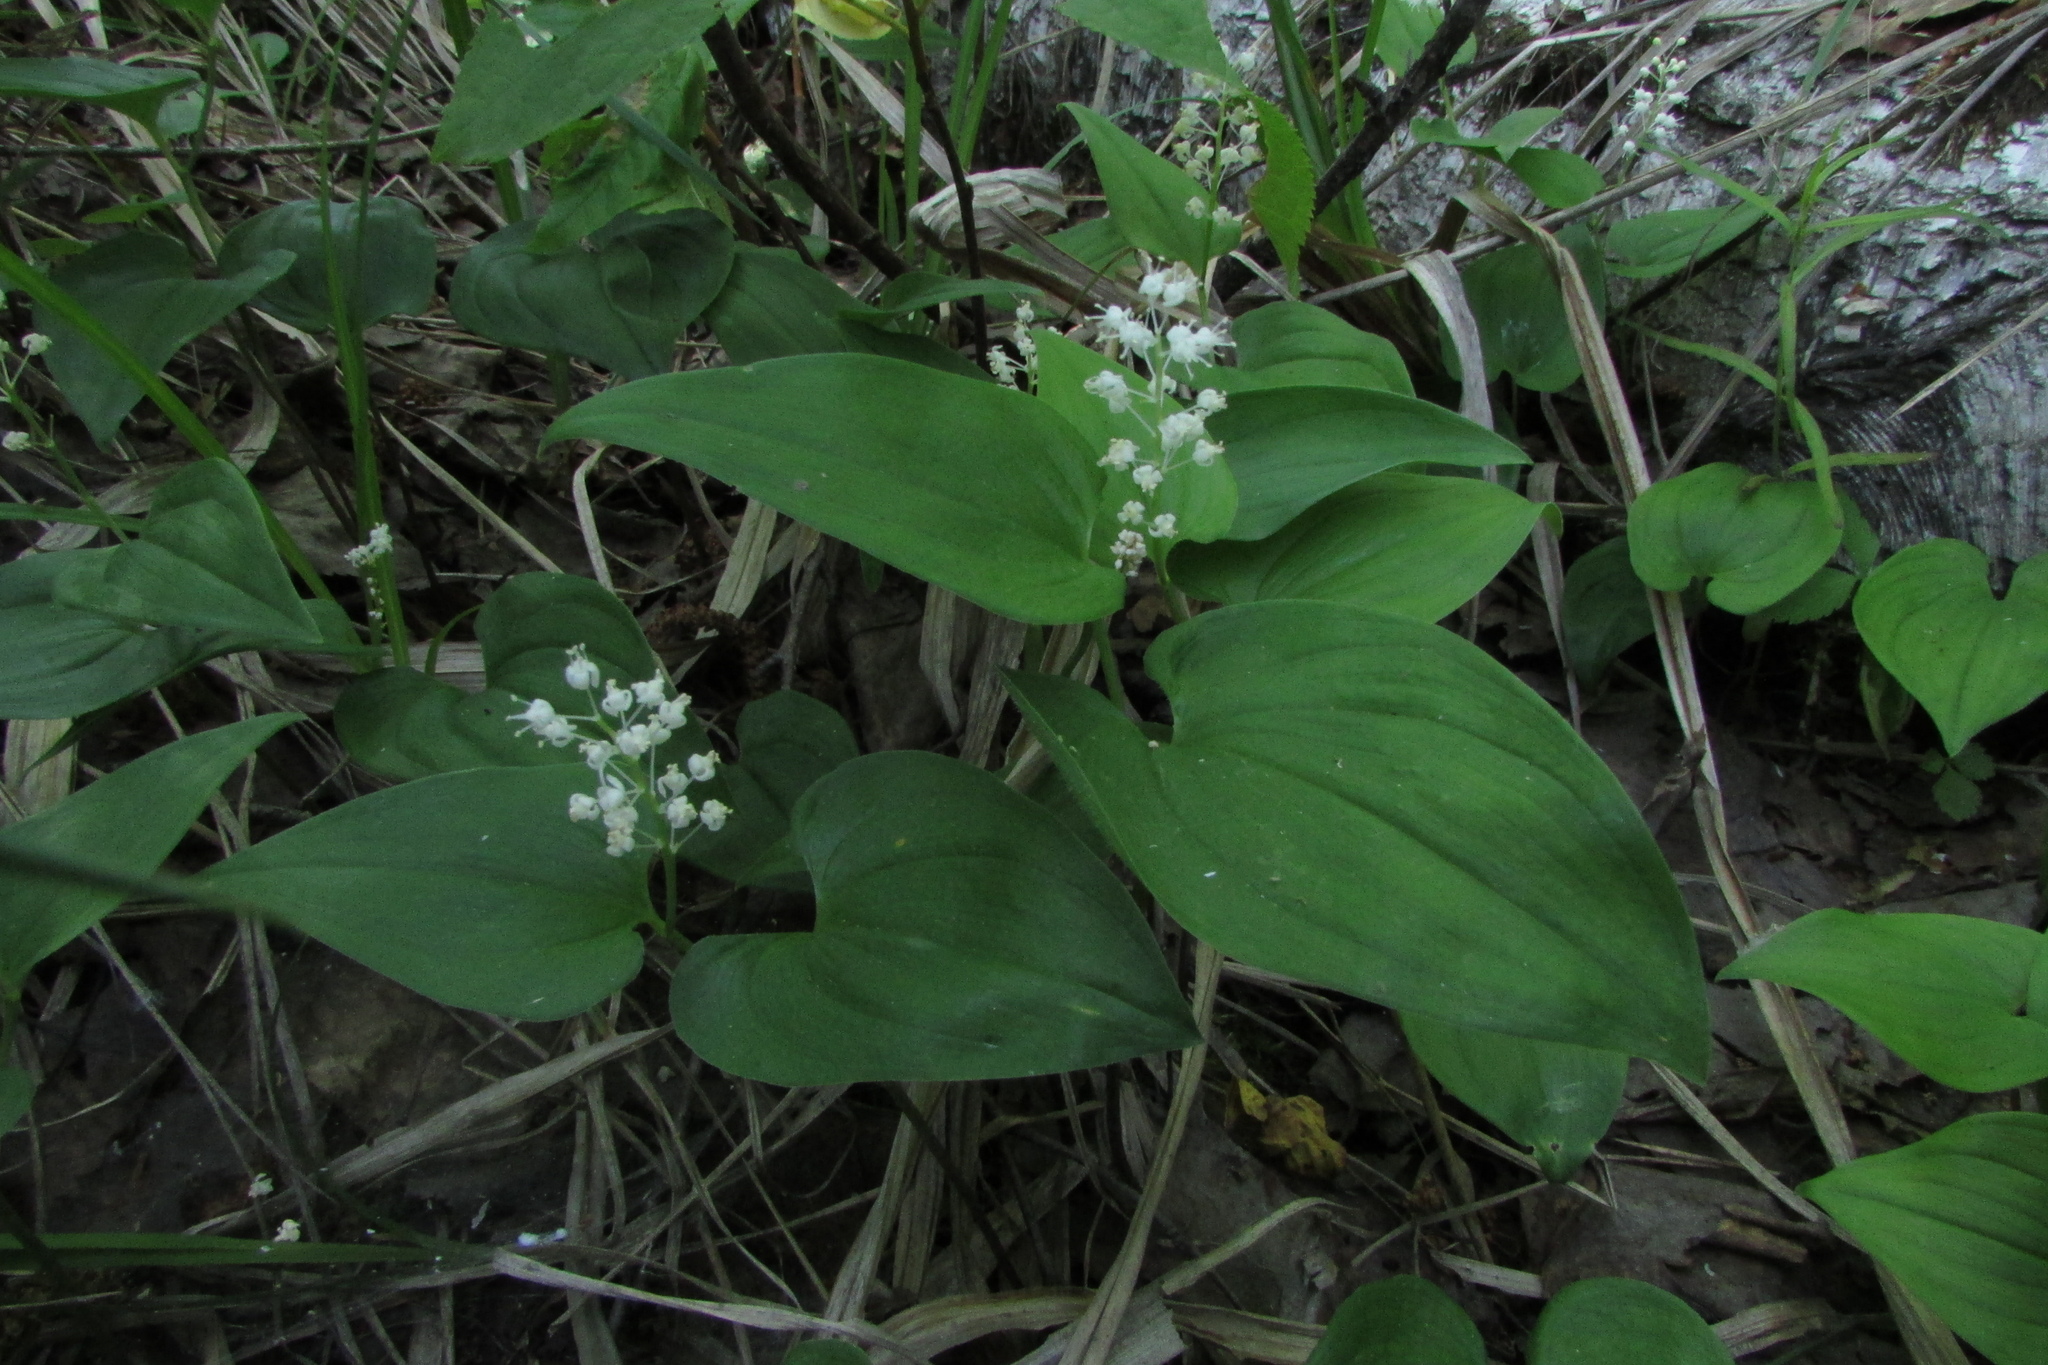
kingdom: Plantae
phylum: Tracheophyta
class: Liliopsida
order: Asparagales
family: Asparagaceae
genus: Maianthemum
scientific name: Maianthemum bifolium
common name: May lily
